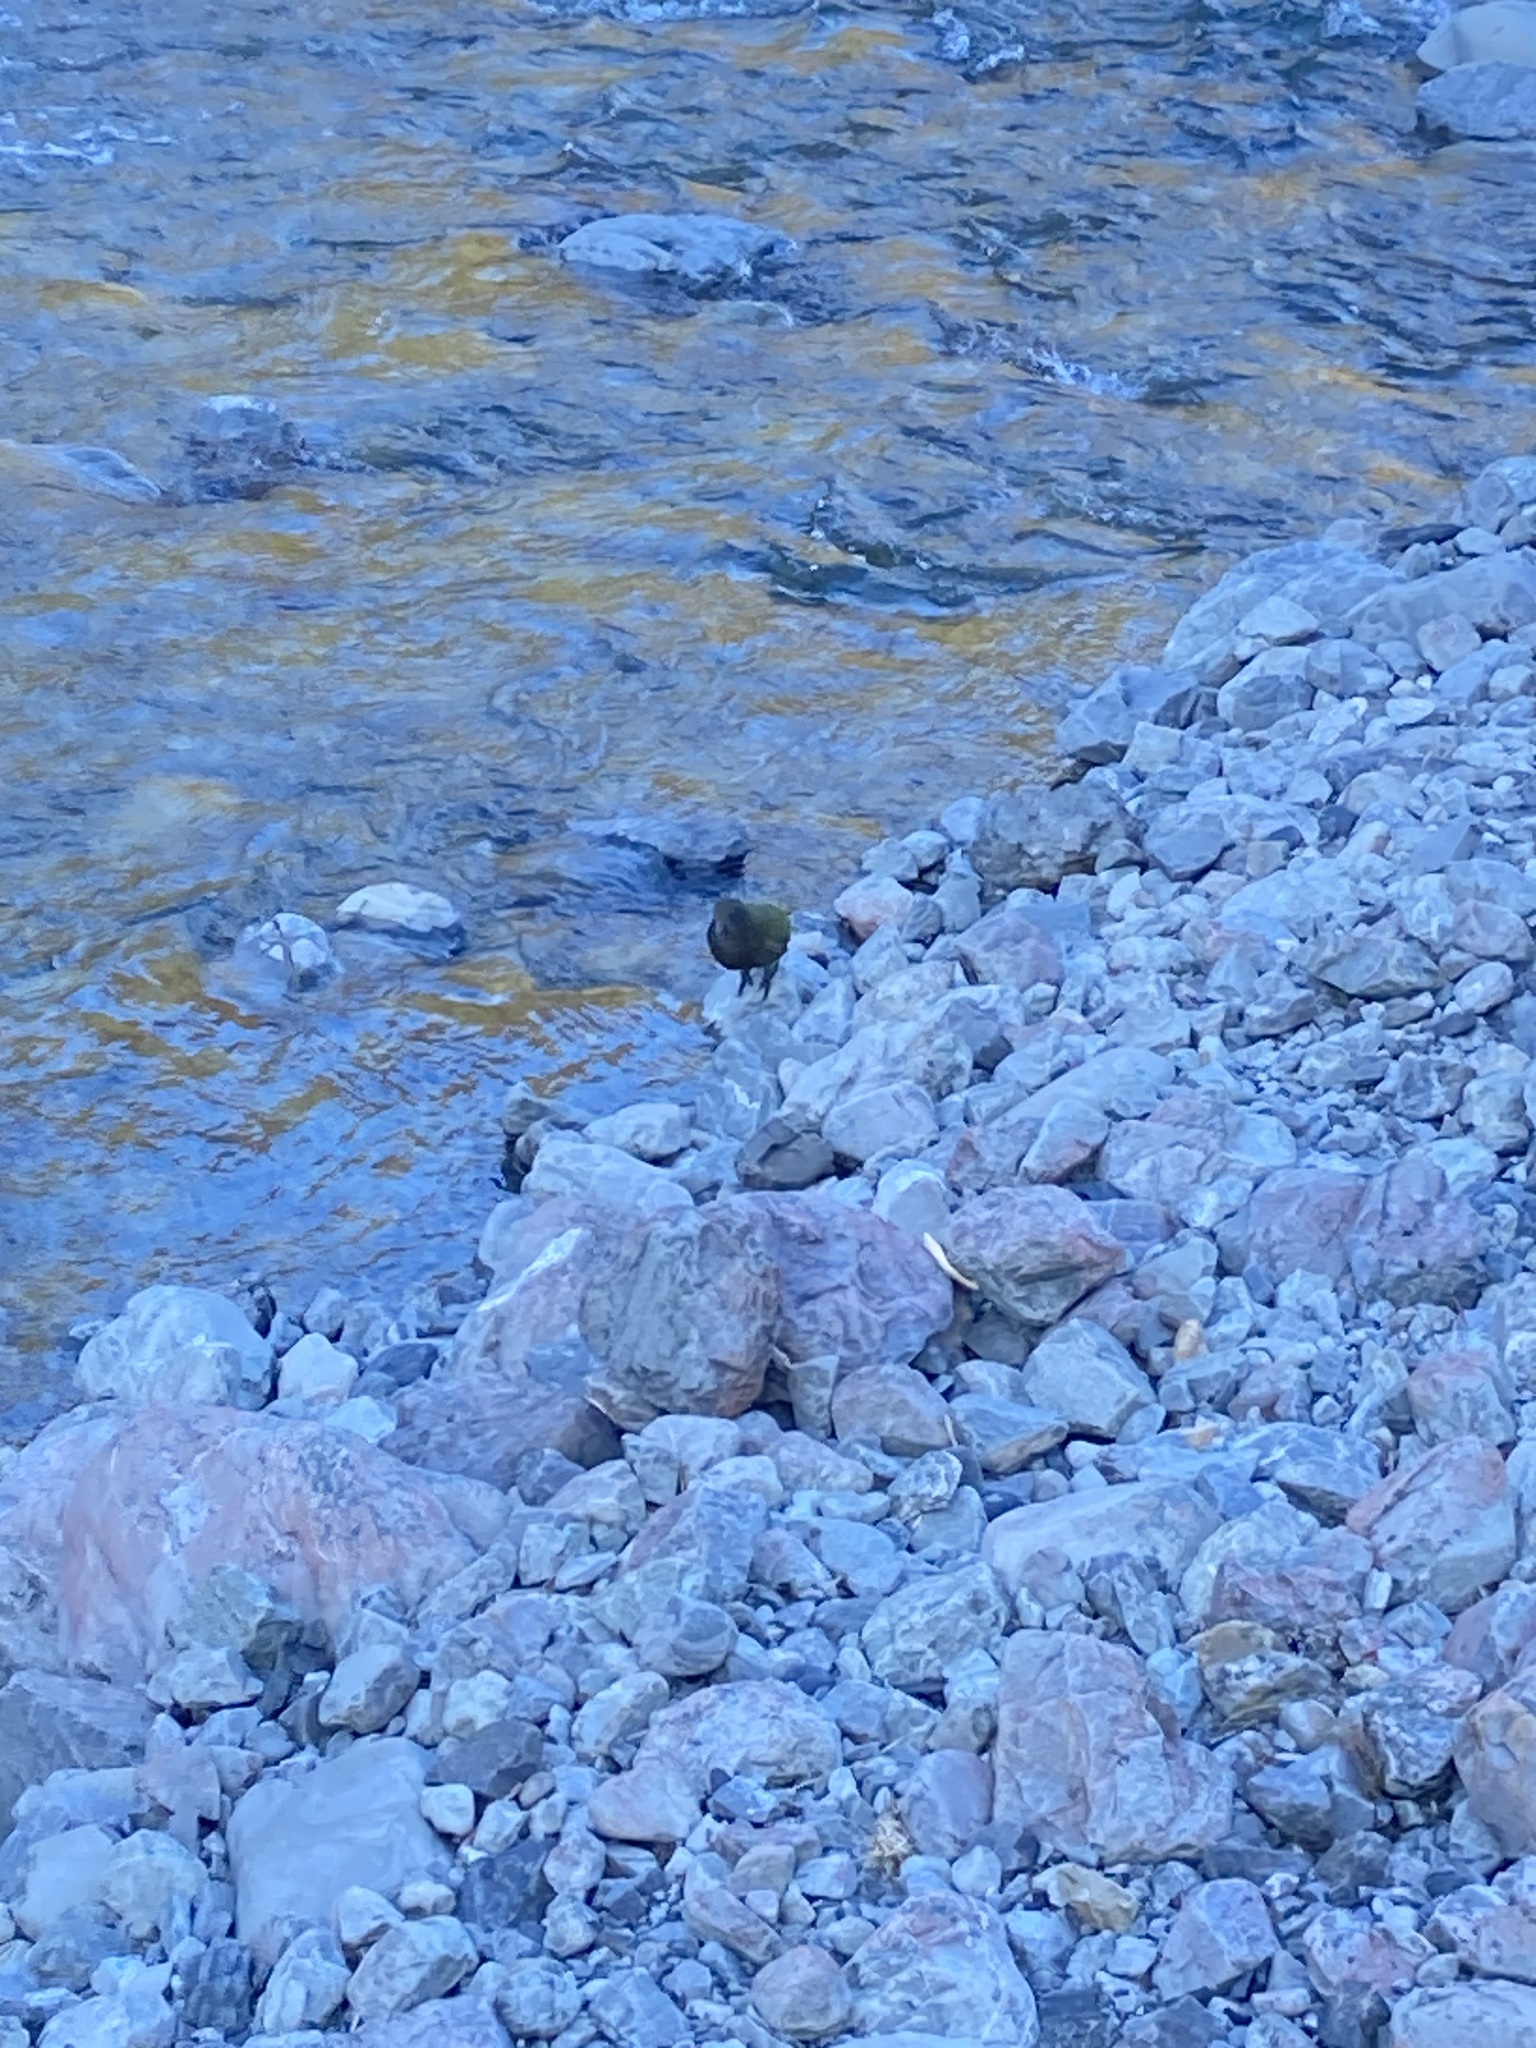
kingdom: Animalia
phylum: Chordata
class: Aves
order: Psittaciformes
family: Psittacidae
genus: Nestor
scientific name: Nestor notabilis
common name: Kea
